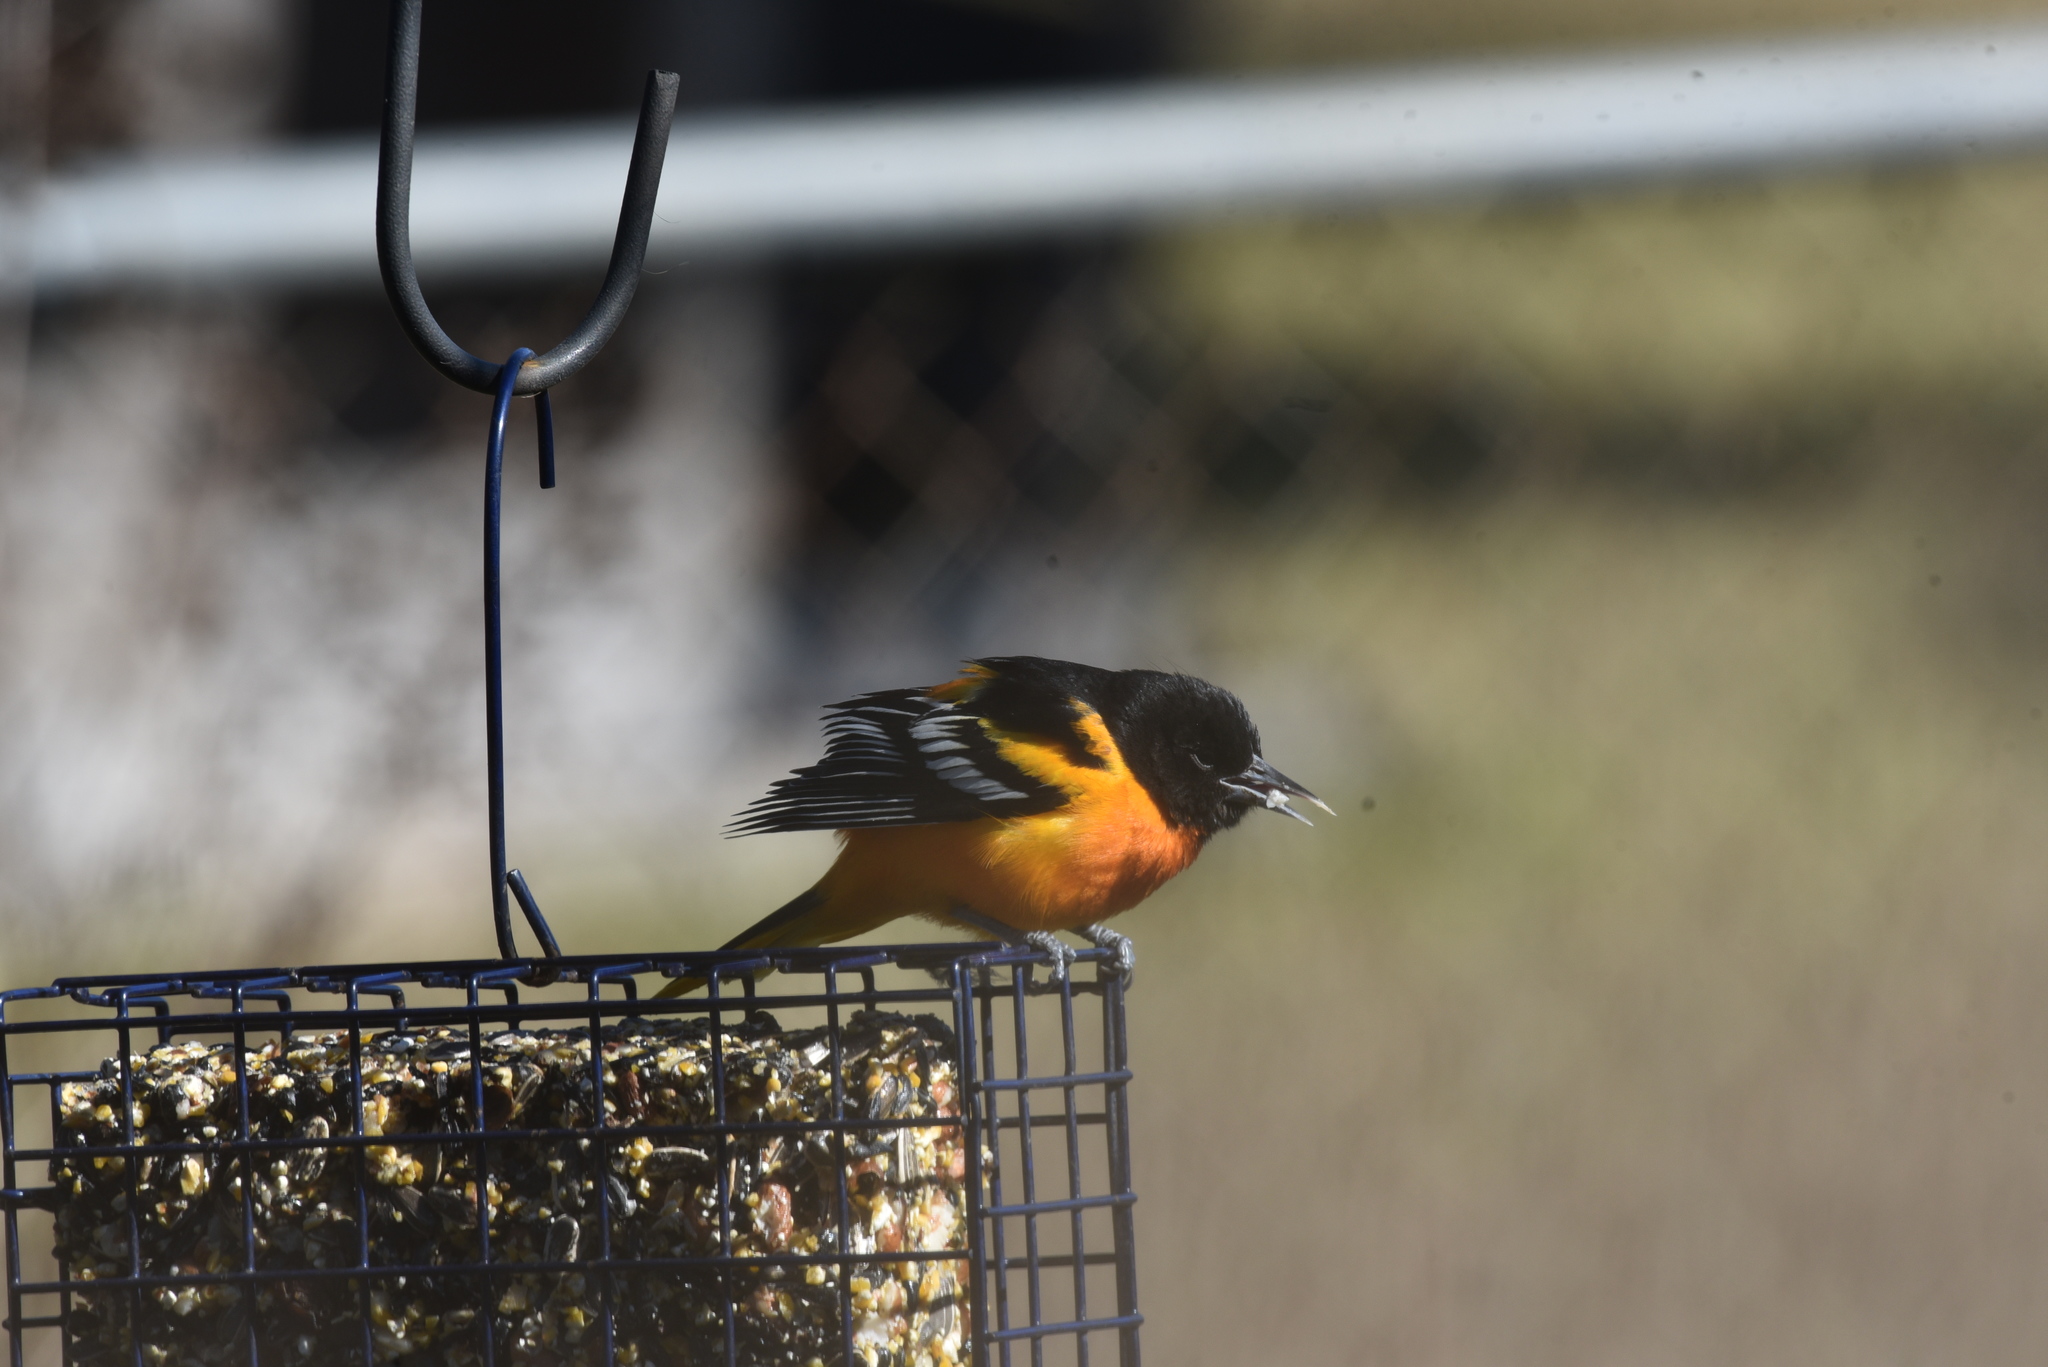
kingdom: Animalia
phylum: Chordata
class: Aves
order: Passeriformes
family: Icteridae
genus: Icterus
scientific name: Icterus galbula
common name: Baltimore oriole
